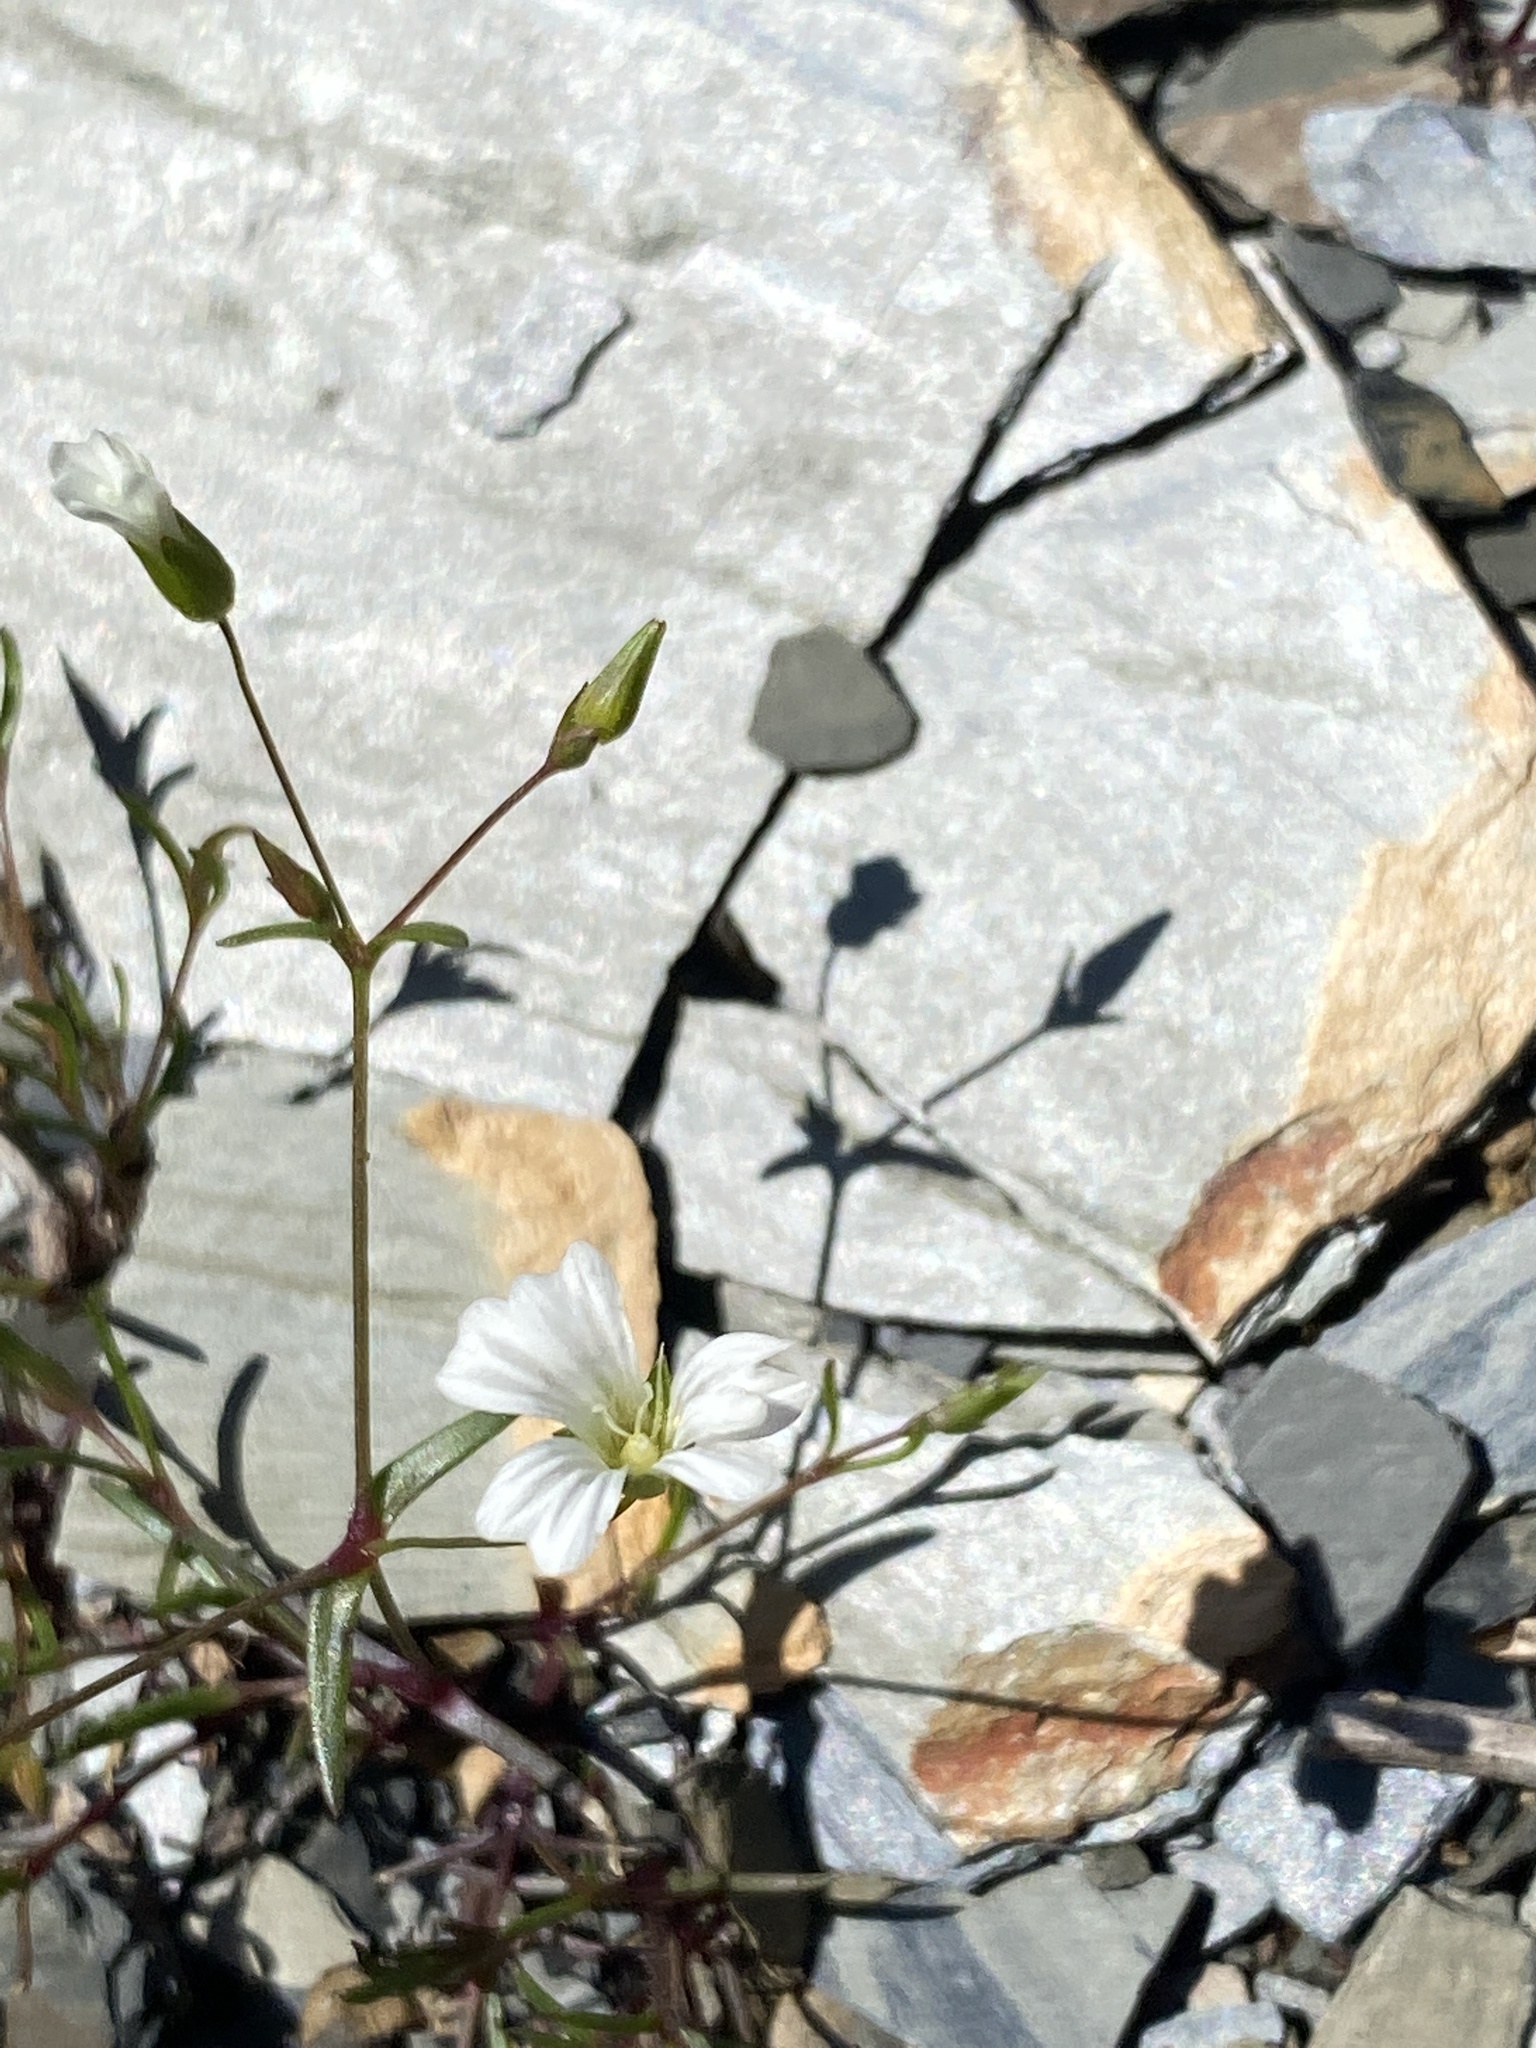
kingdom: Plantae
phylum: Tracheophyta
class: Magnoliopsida
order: Caryophyllales
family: Caryophyllaceae
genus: Mononeuria
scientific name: Mononeuria patula
